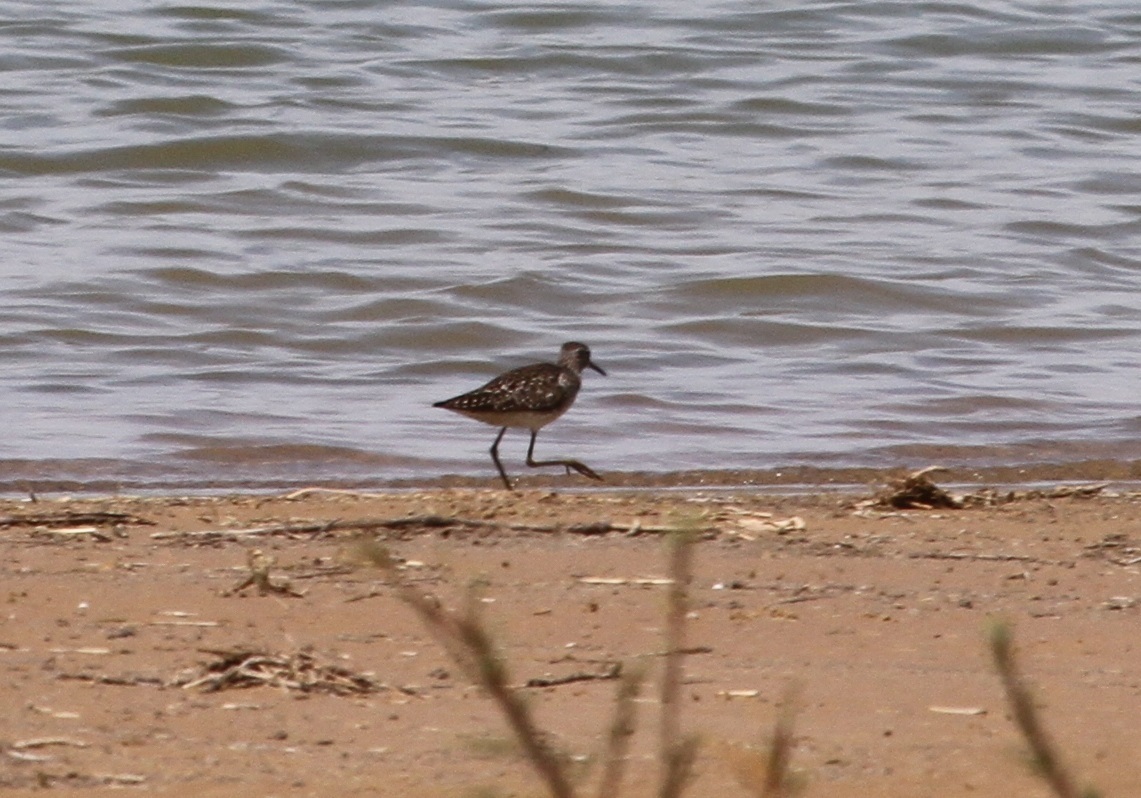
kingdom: Animalia
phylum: Chordata
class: Aves
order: Charadriiformes
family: Scolopacidae
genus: Tringa
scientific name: Tringa glareola
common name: Wood sandpiper
